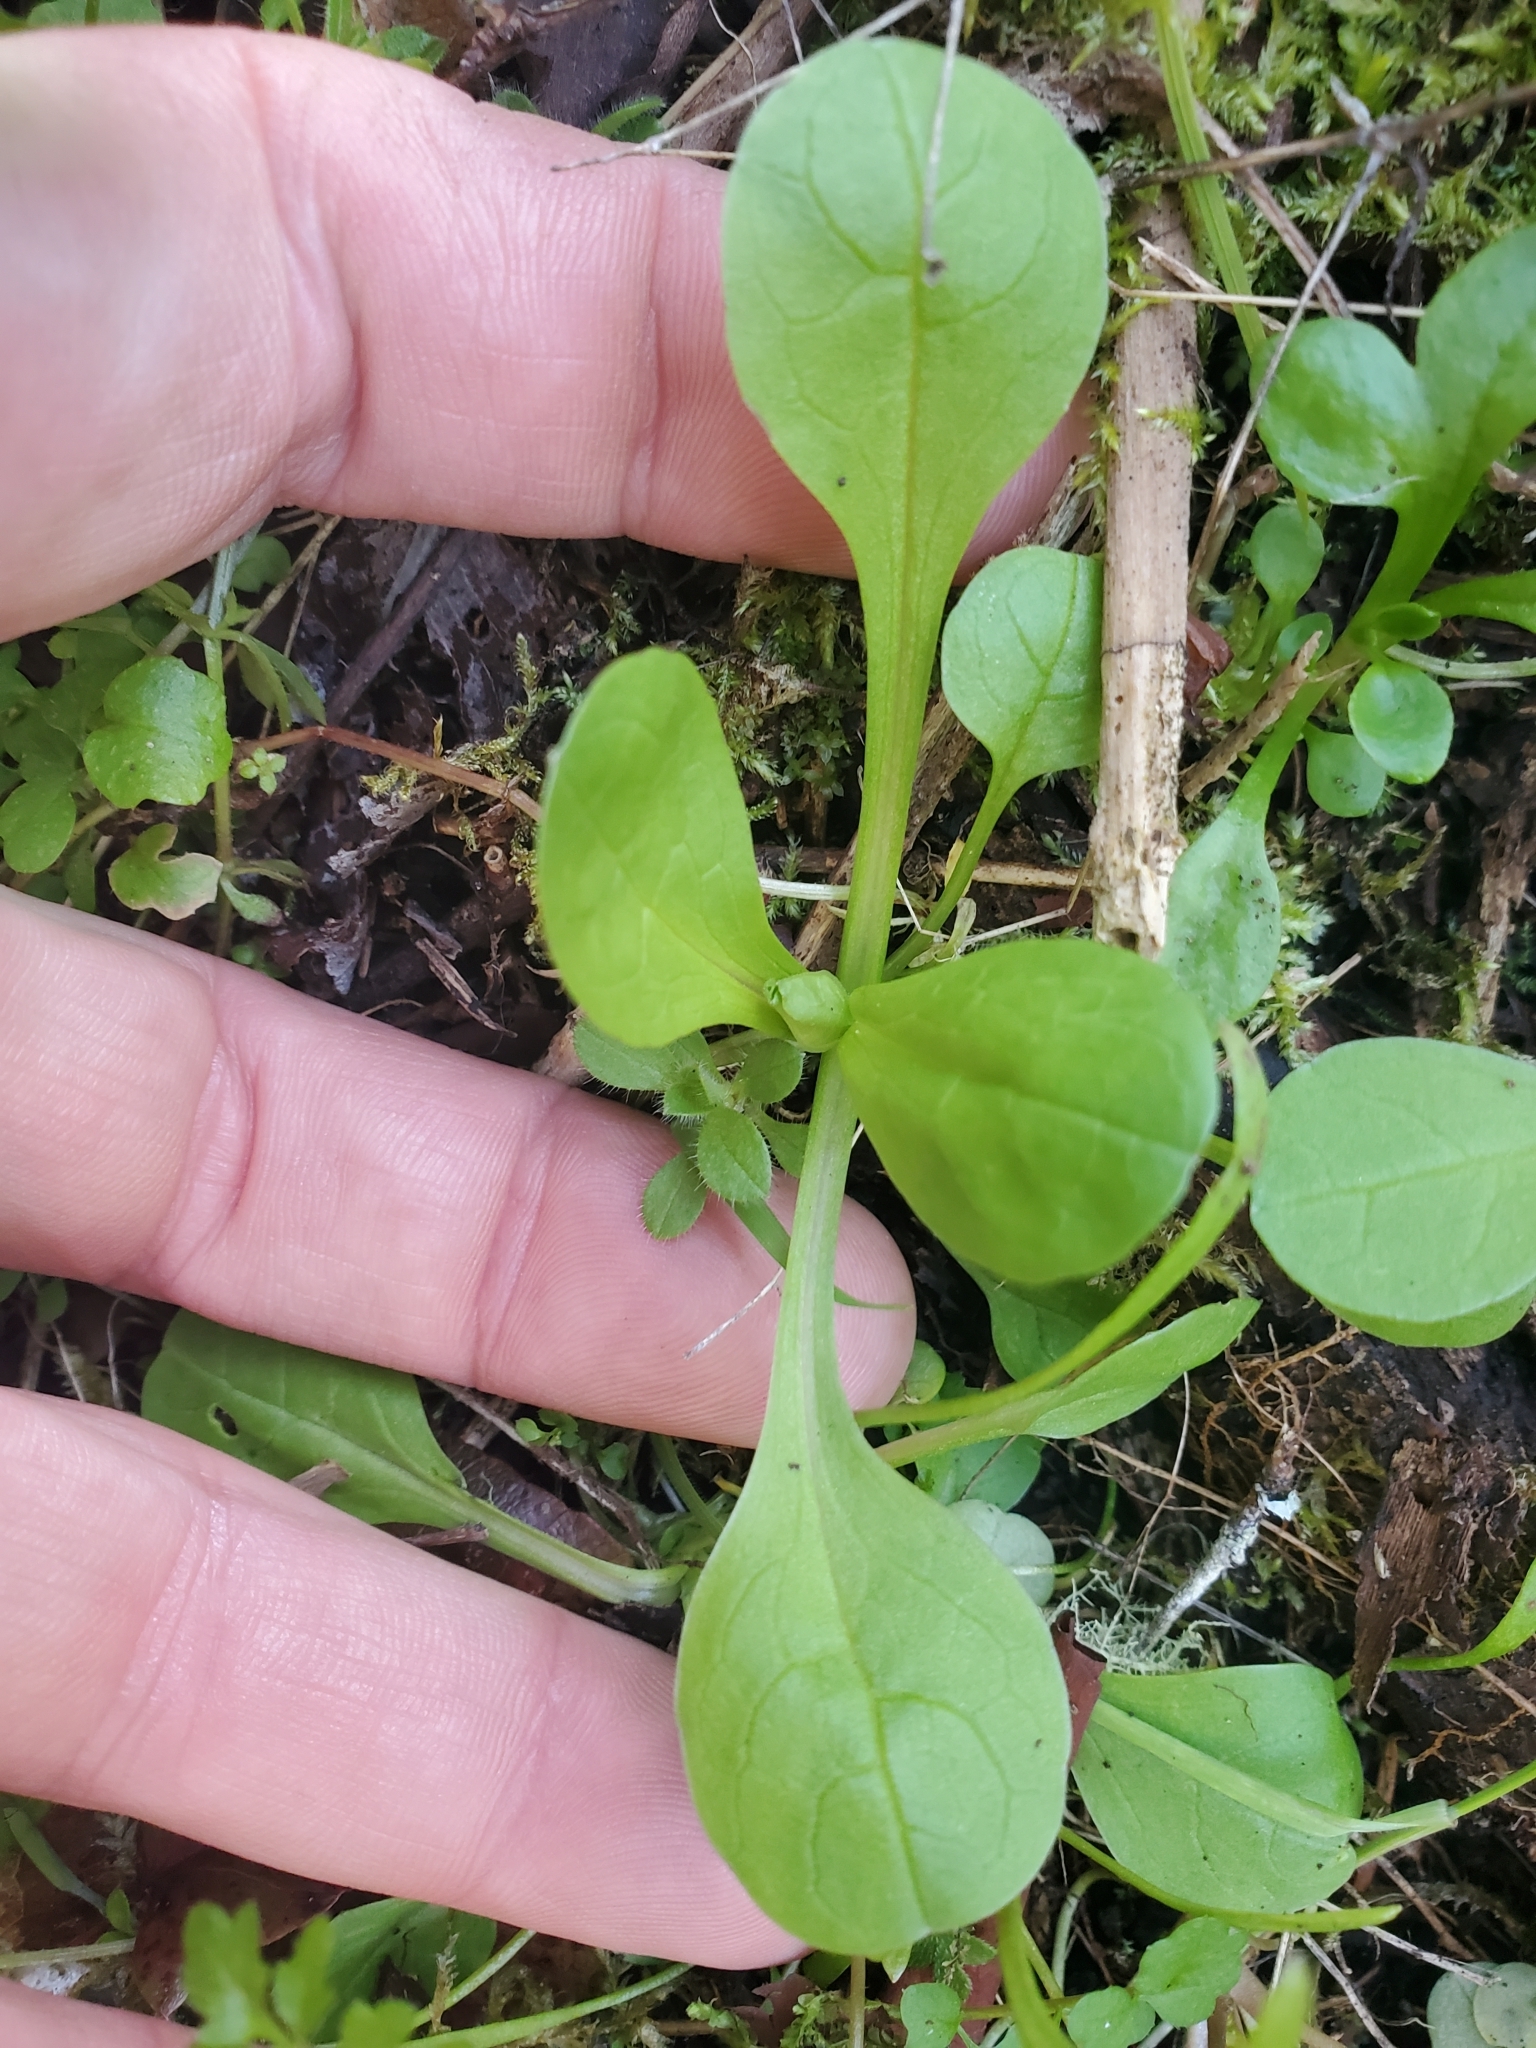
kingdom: Plantae
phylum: Tracheophyta
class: Magnoliopsida
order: Dipsacales
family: Caprifoliaceae
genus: Plectritis
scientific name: Plectritis congesta
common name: Pink plectritis
